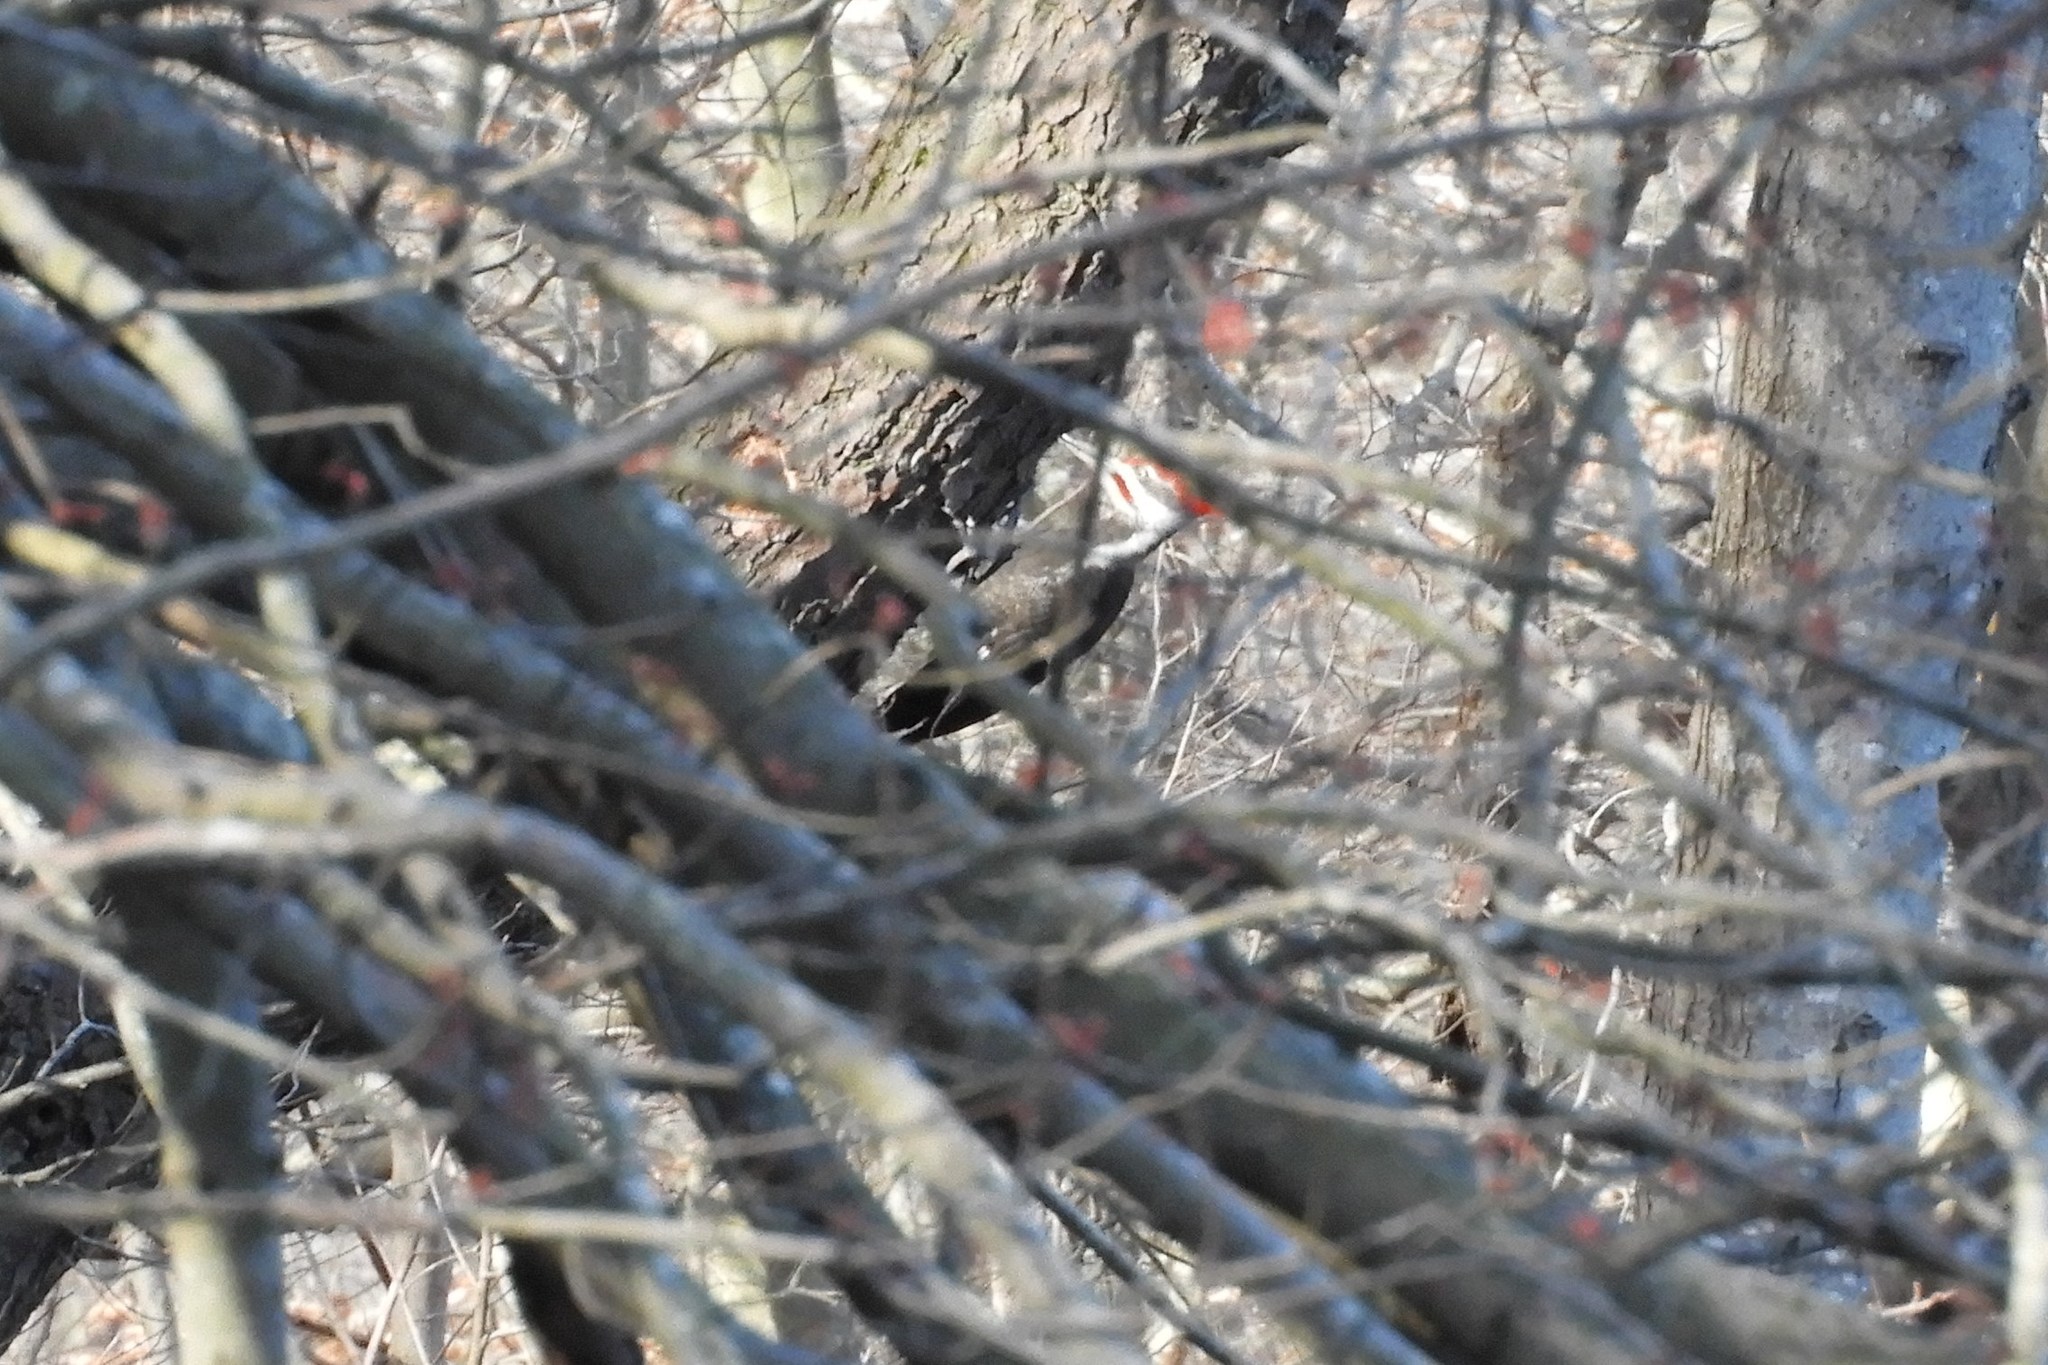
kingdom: Animalia
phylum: Chordata
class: Aves
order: Piciformes
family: Picidae
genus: Dryocopus
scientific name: Dryocopus pileatus
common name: Pileated woodpecker
